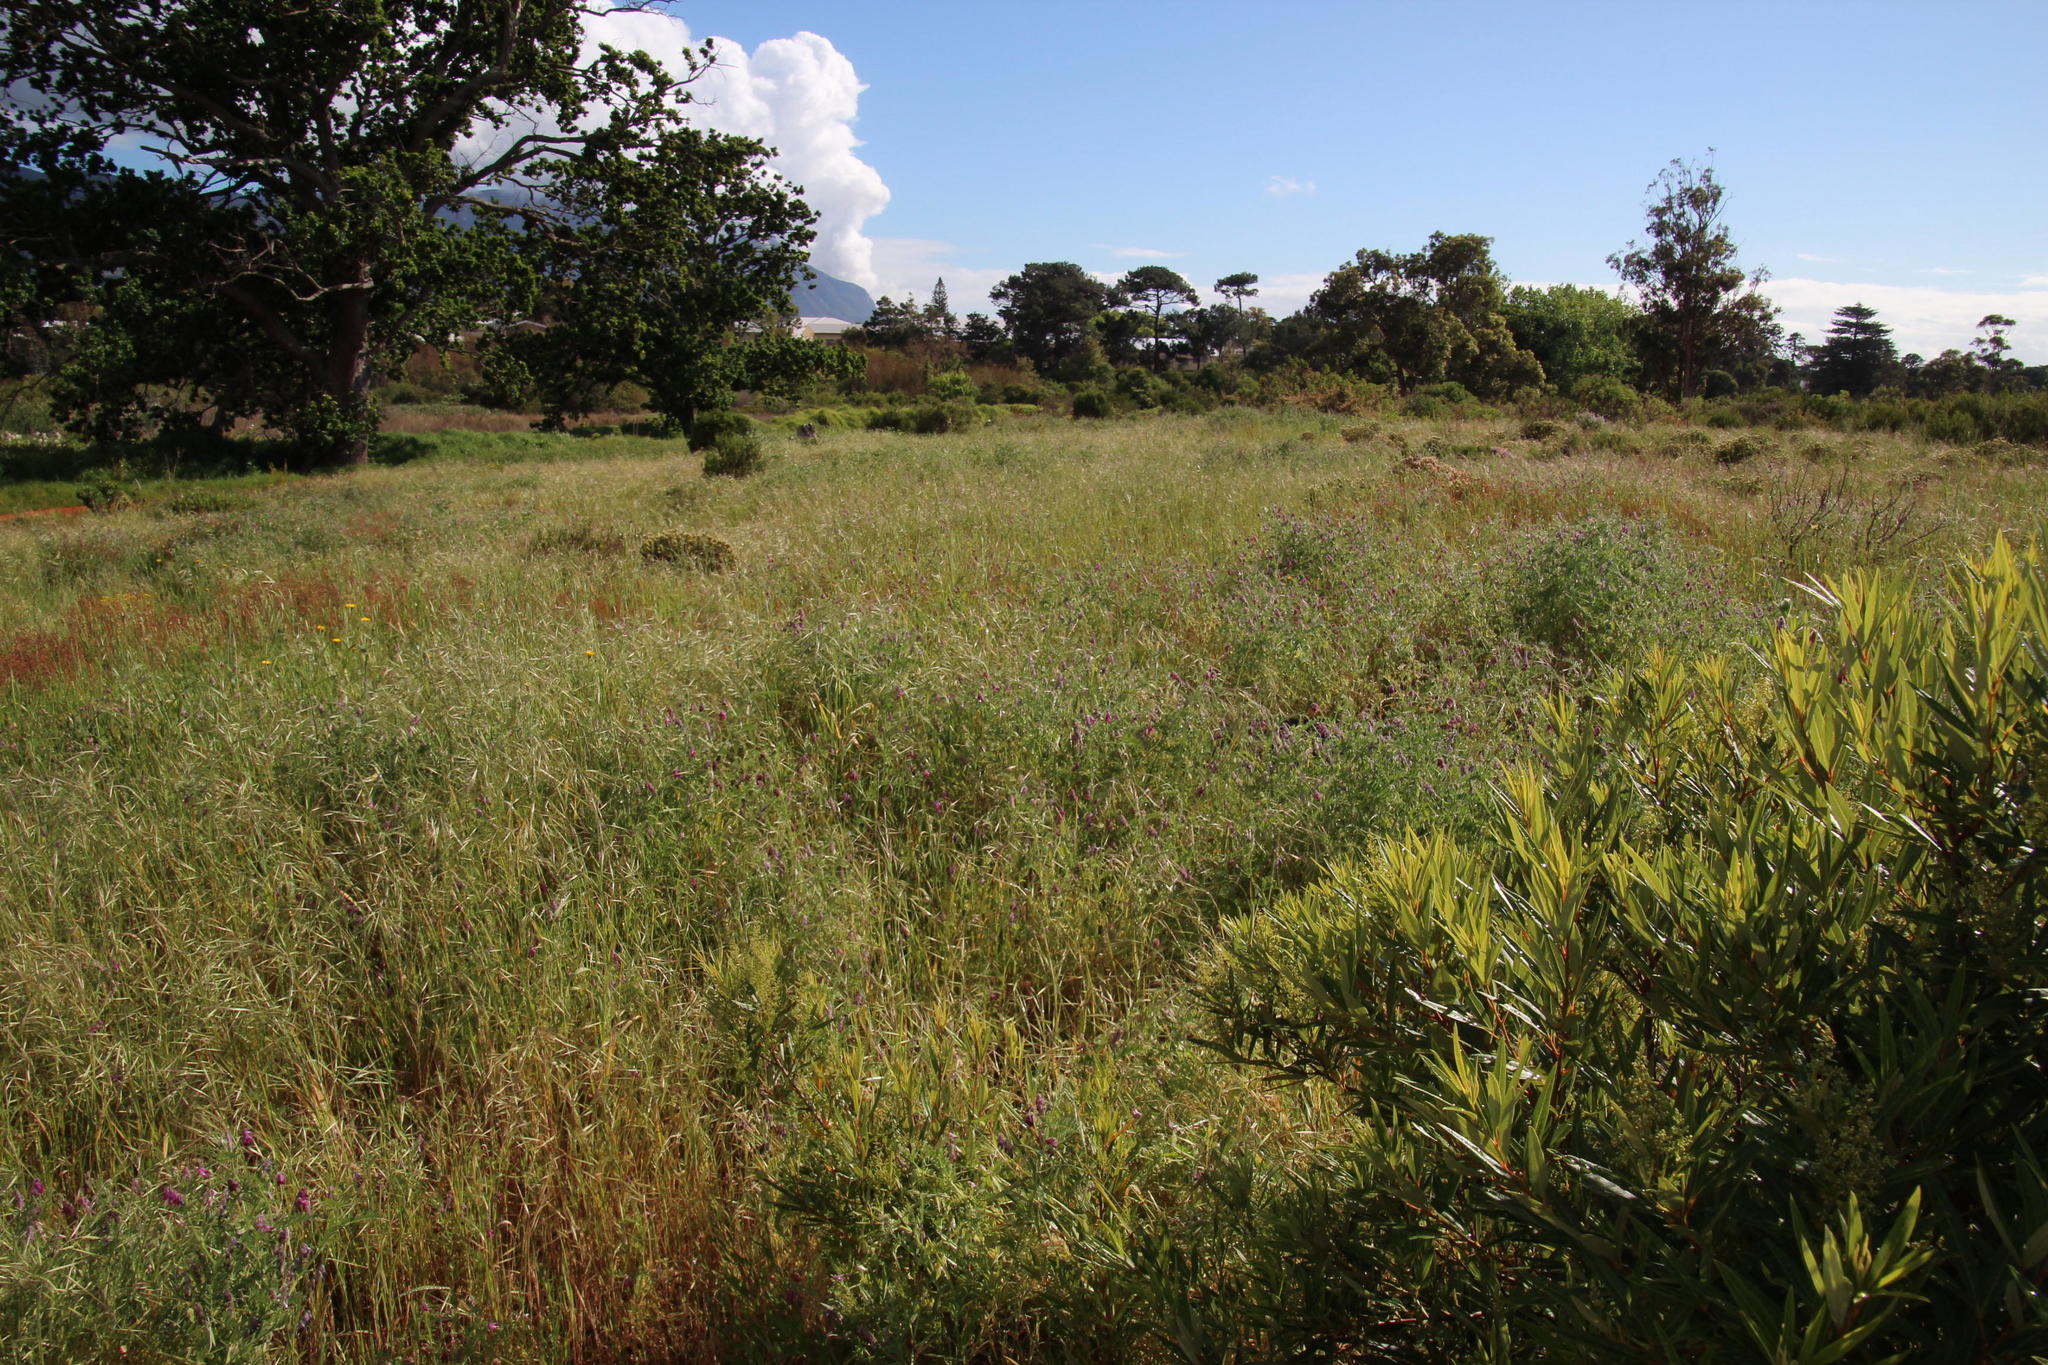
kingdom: Plantae
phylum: Tracheophyta
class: Liliopsida
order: Poales
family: Poaceae
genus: Bromus
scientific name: Bromus diandrus
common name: Ripgut brome
